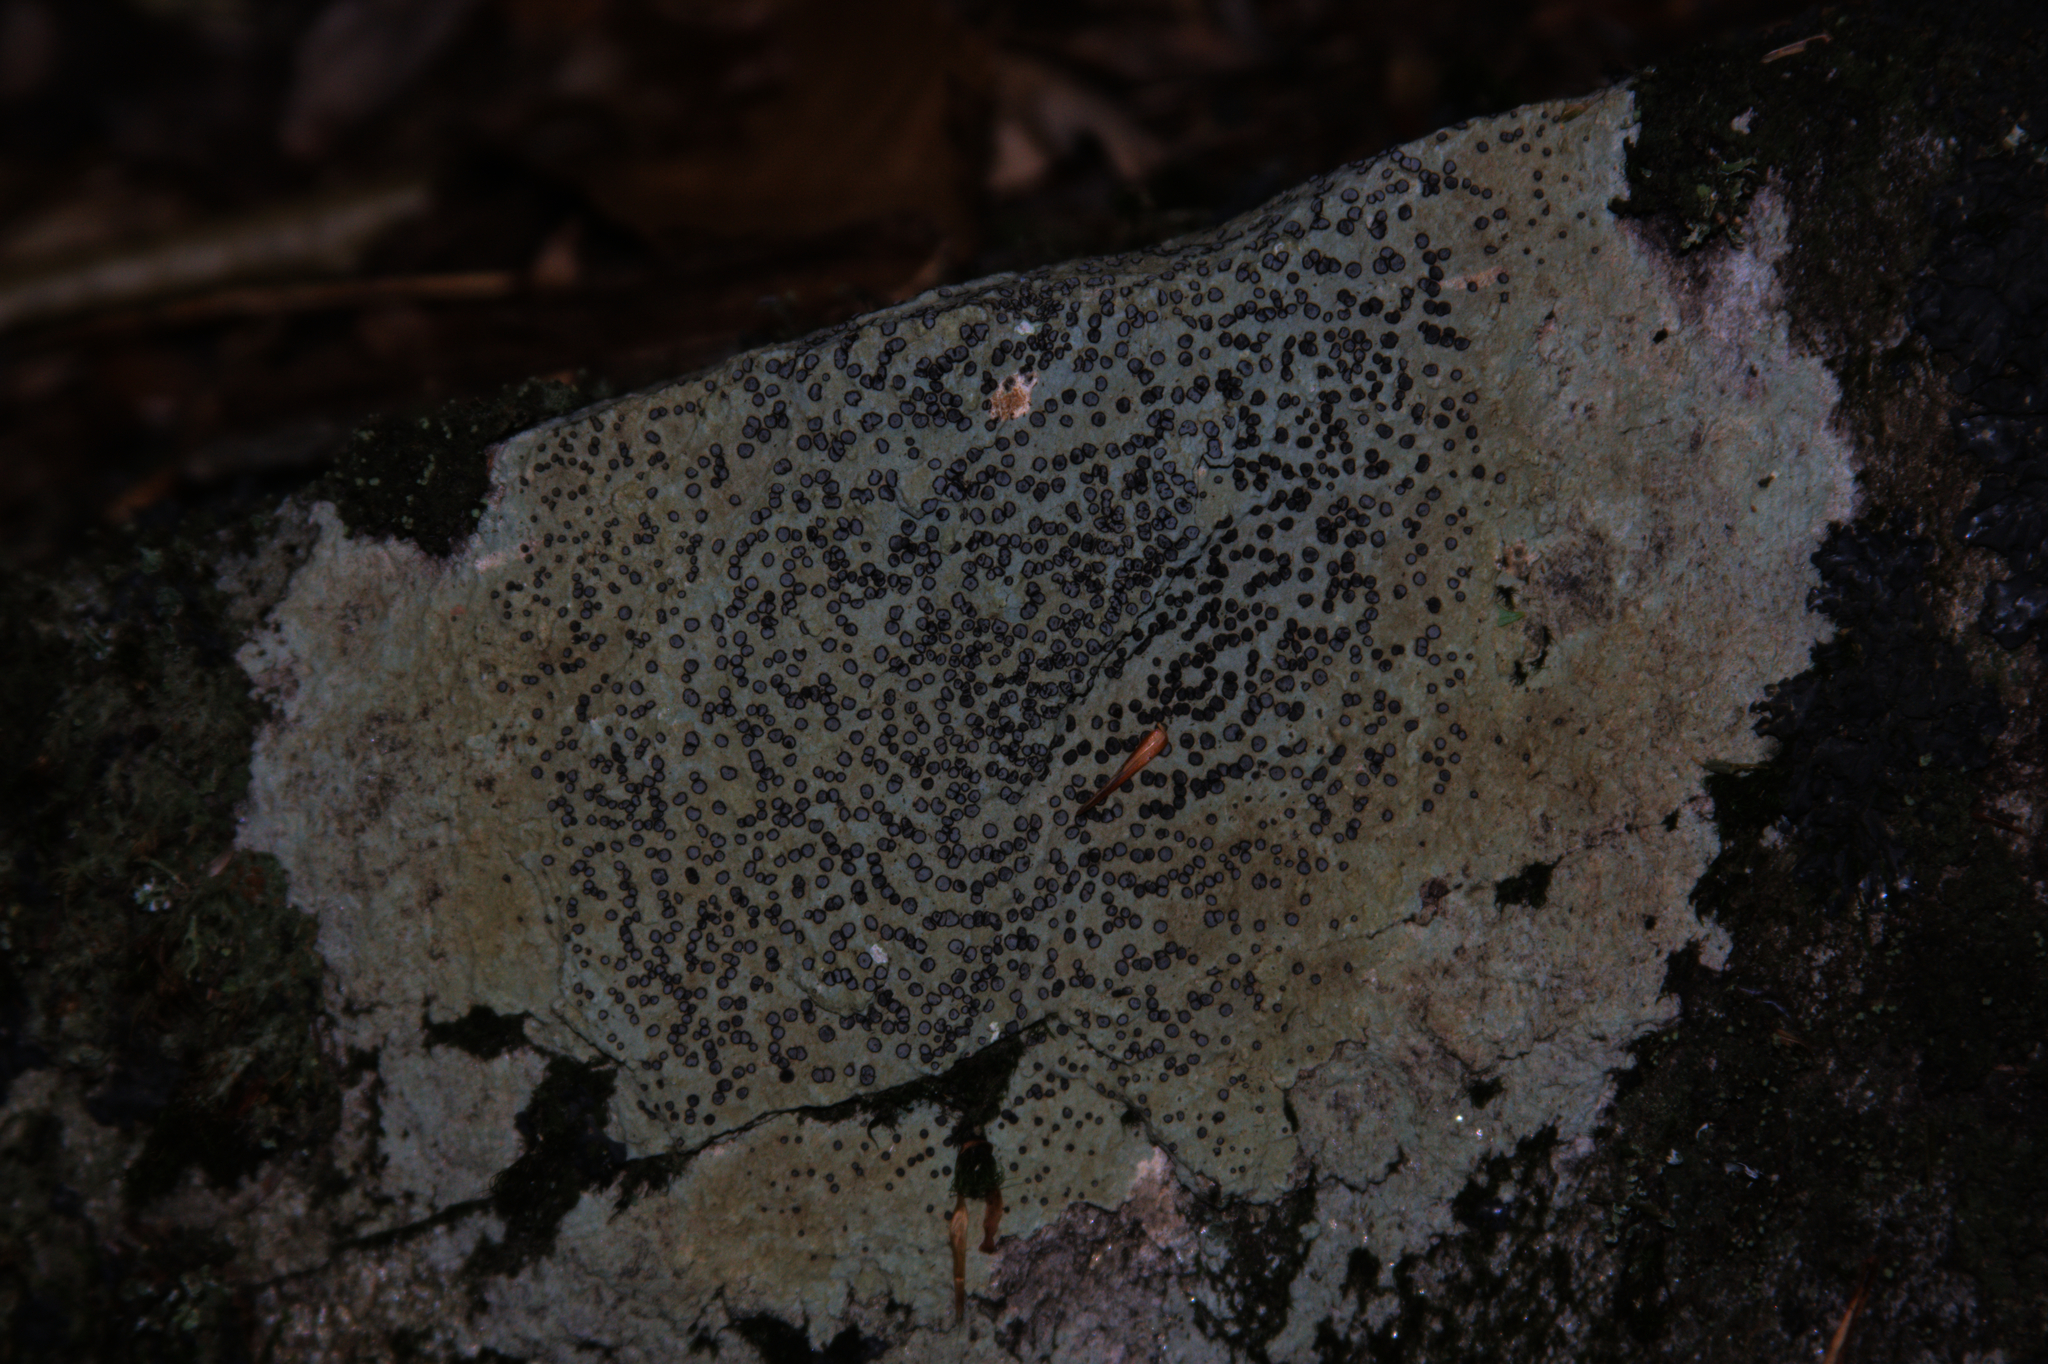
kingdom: Fungi
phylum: Ascomycota
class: Lecanoromycetes
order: Lecideales
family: Lecideaceae
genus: Porpidia
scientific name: Porpidia albocaerulescens
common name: Smokey-eyed boulder lichen
